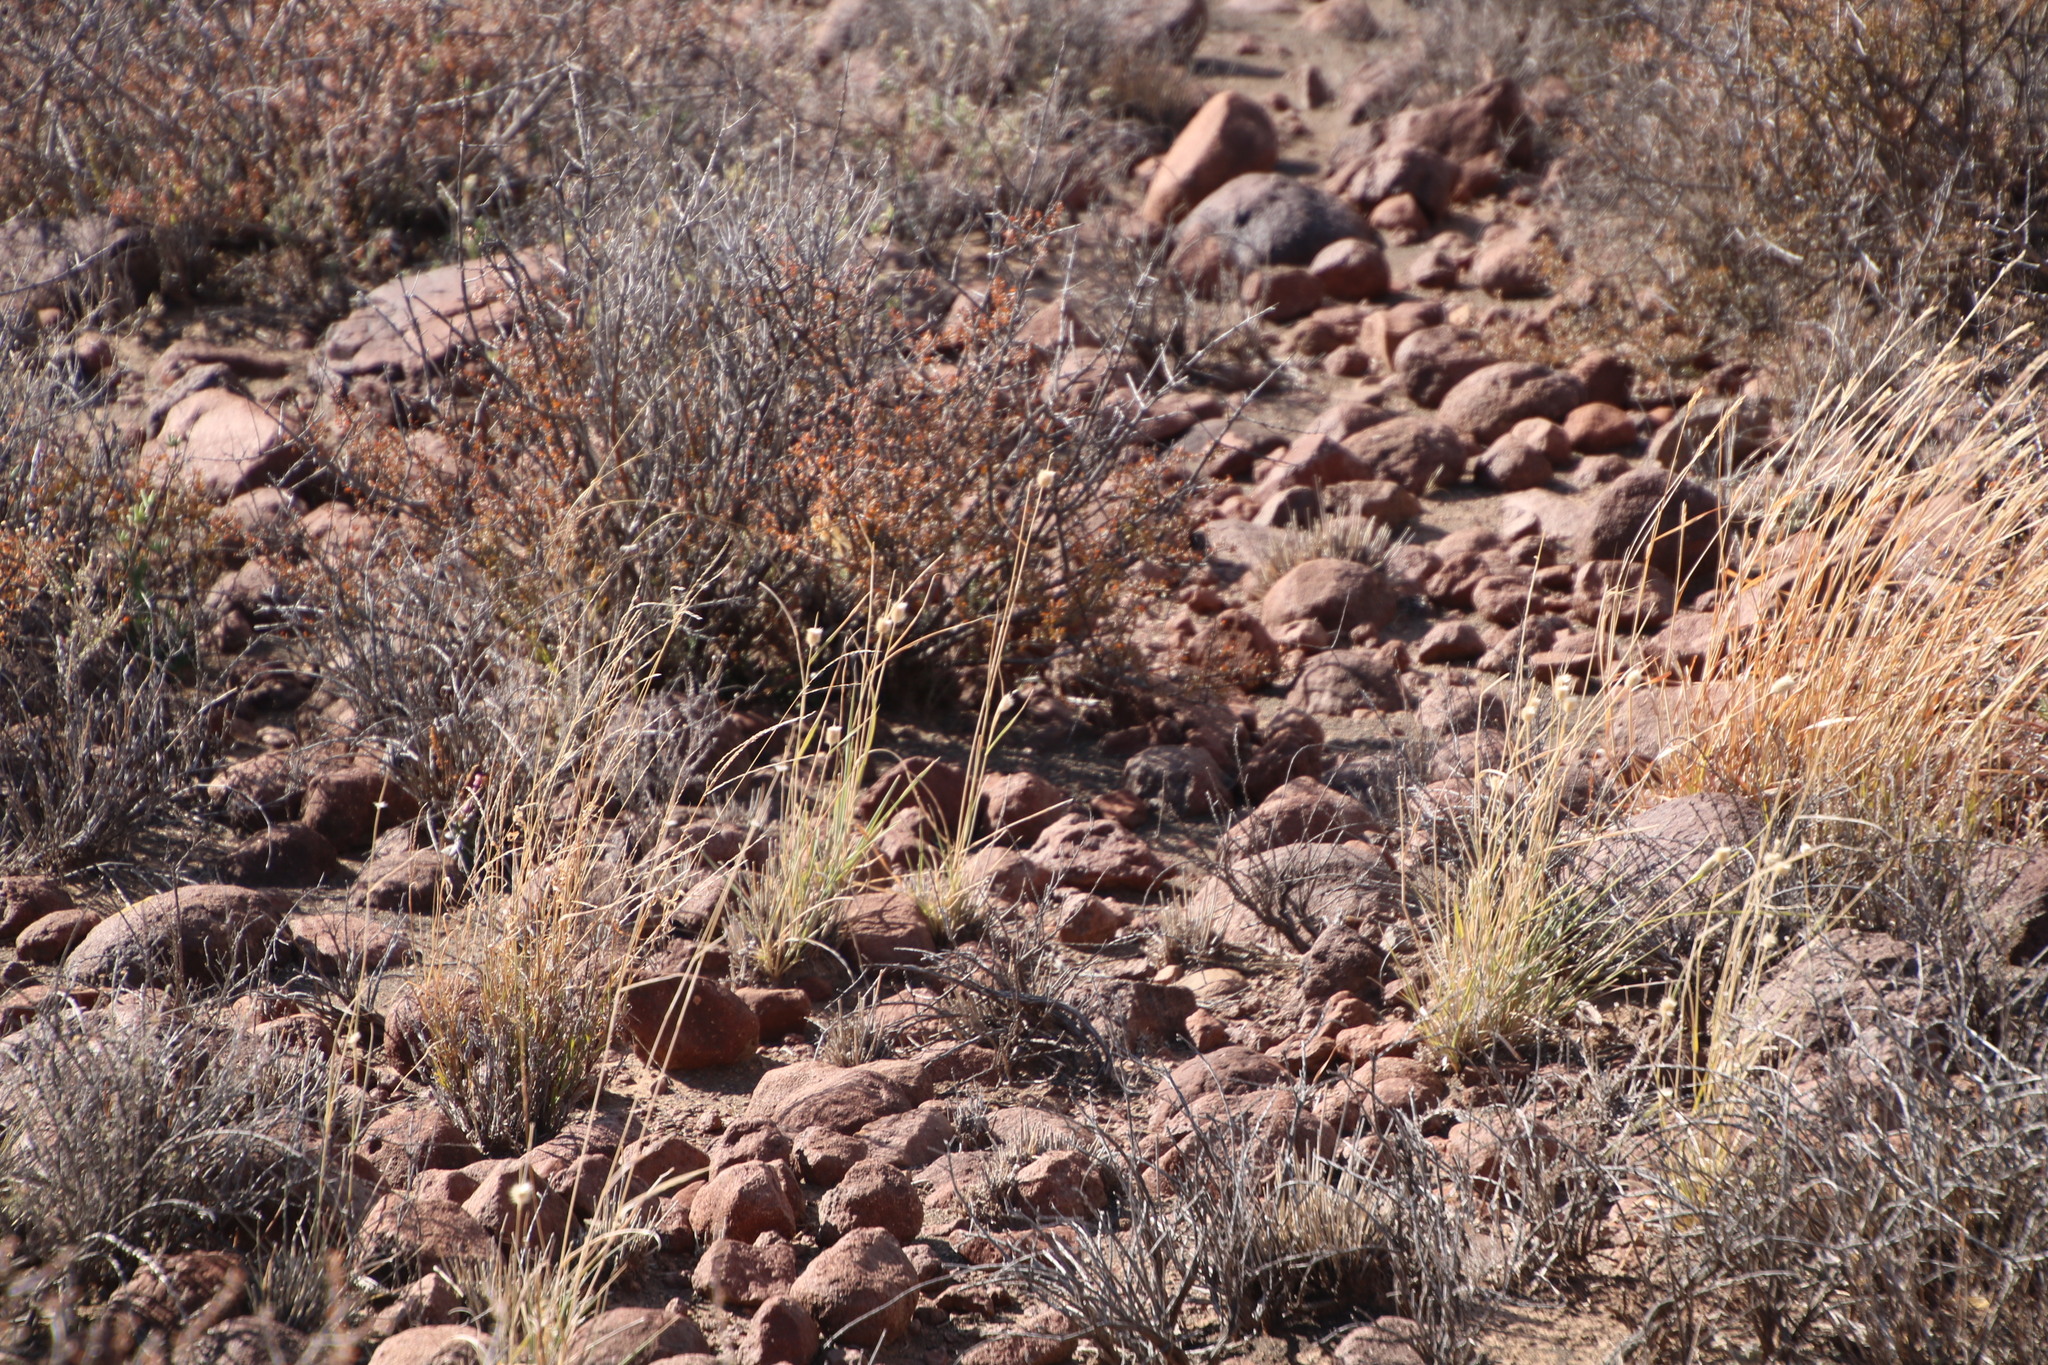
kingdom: Plantae
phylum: Tracheophyta
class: Liliopsida
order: Poales
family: Poaceae
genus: Fingerhuthia
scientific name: Fingerhuthia africana
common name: Zulu fescue
